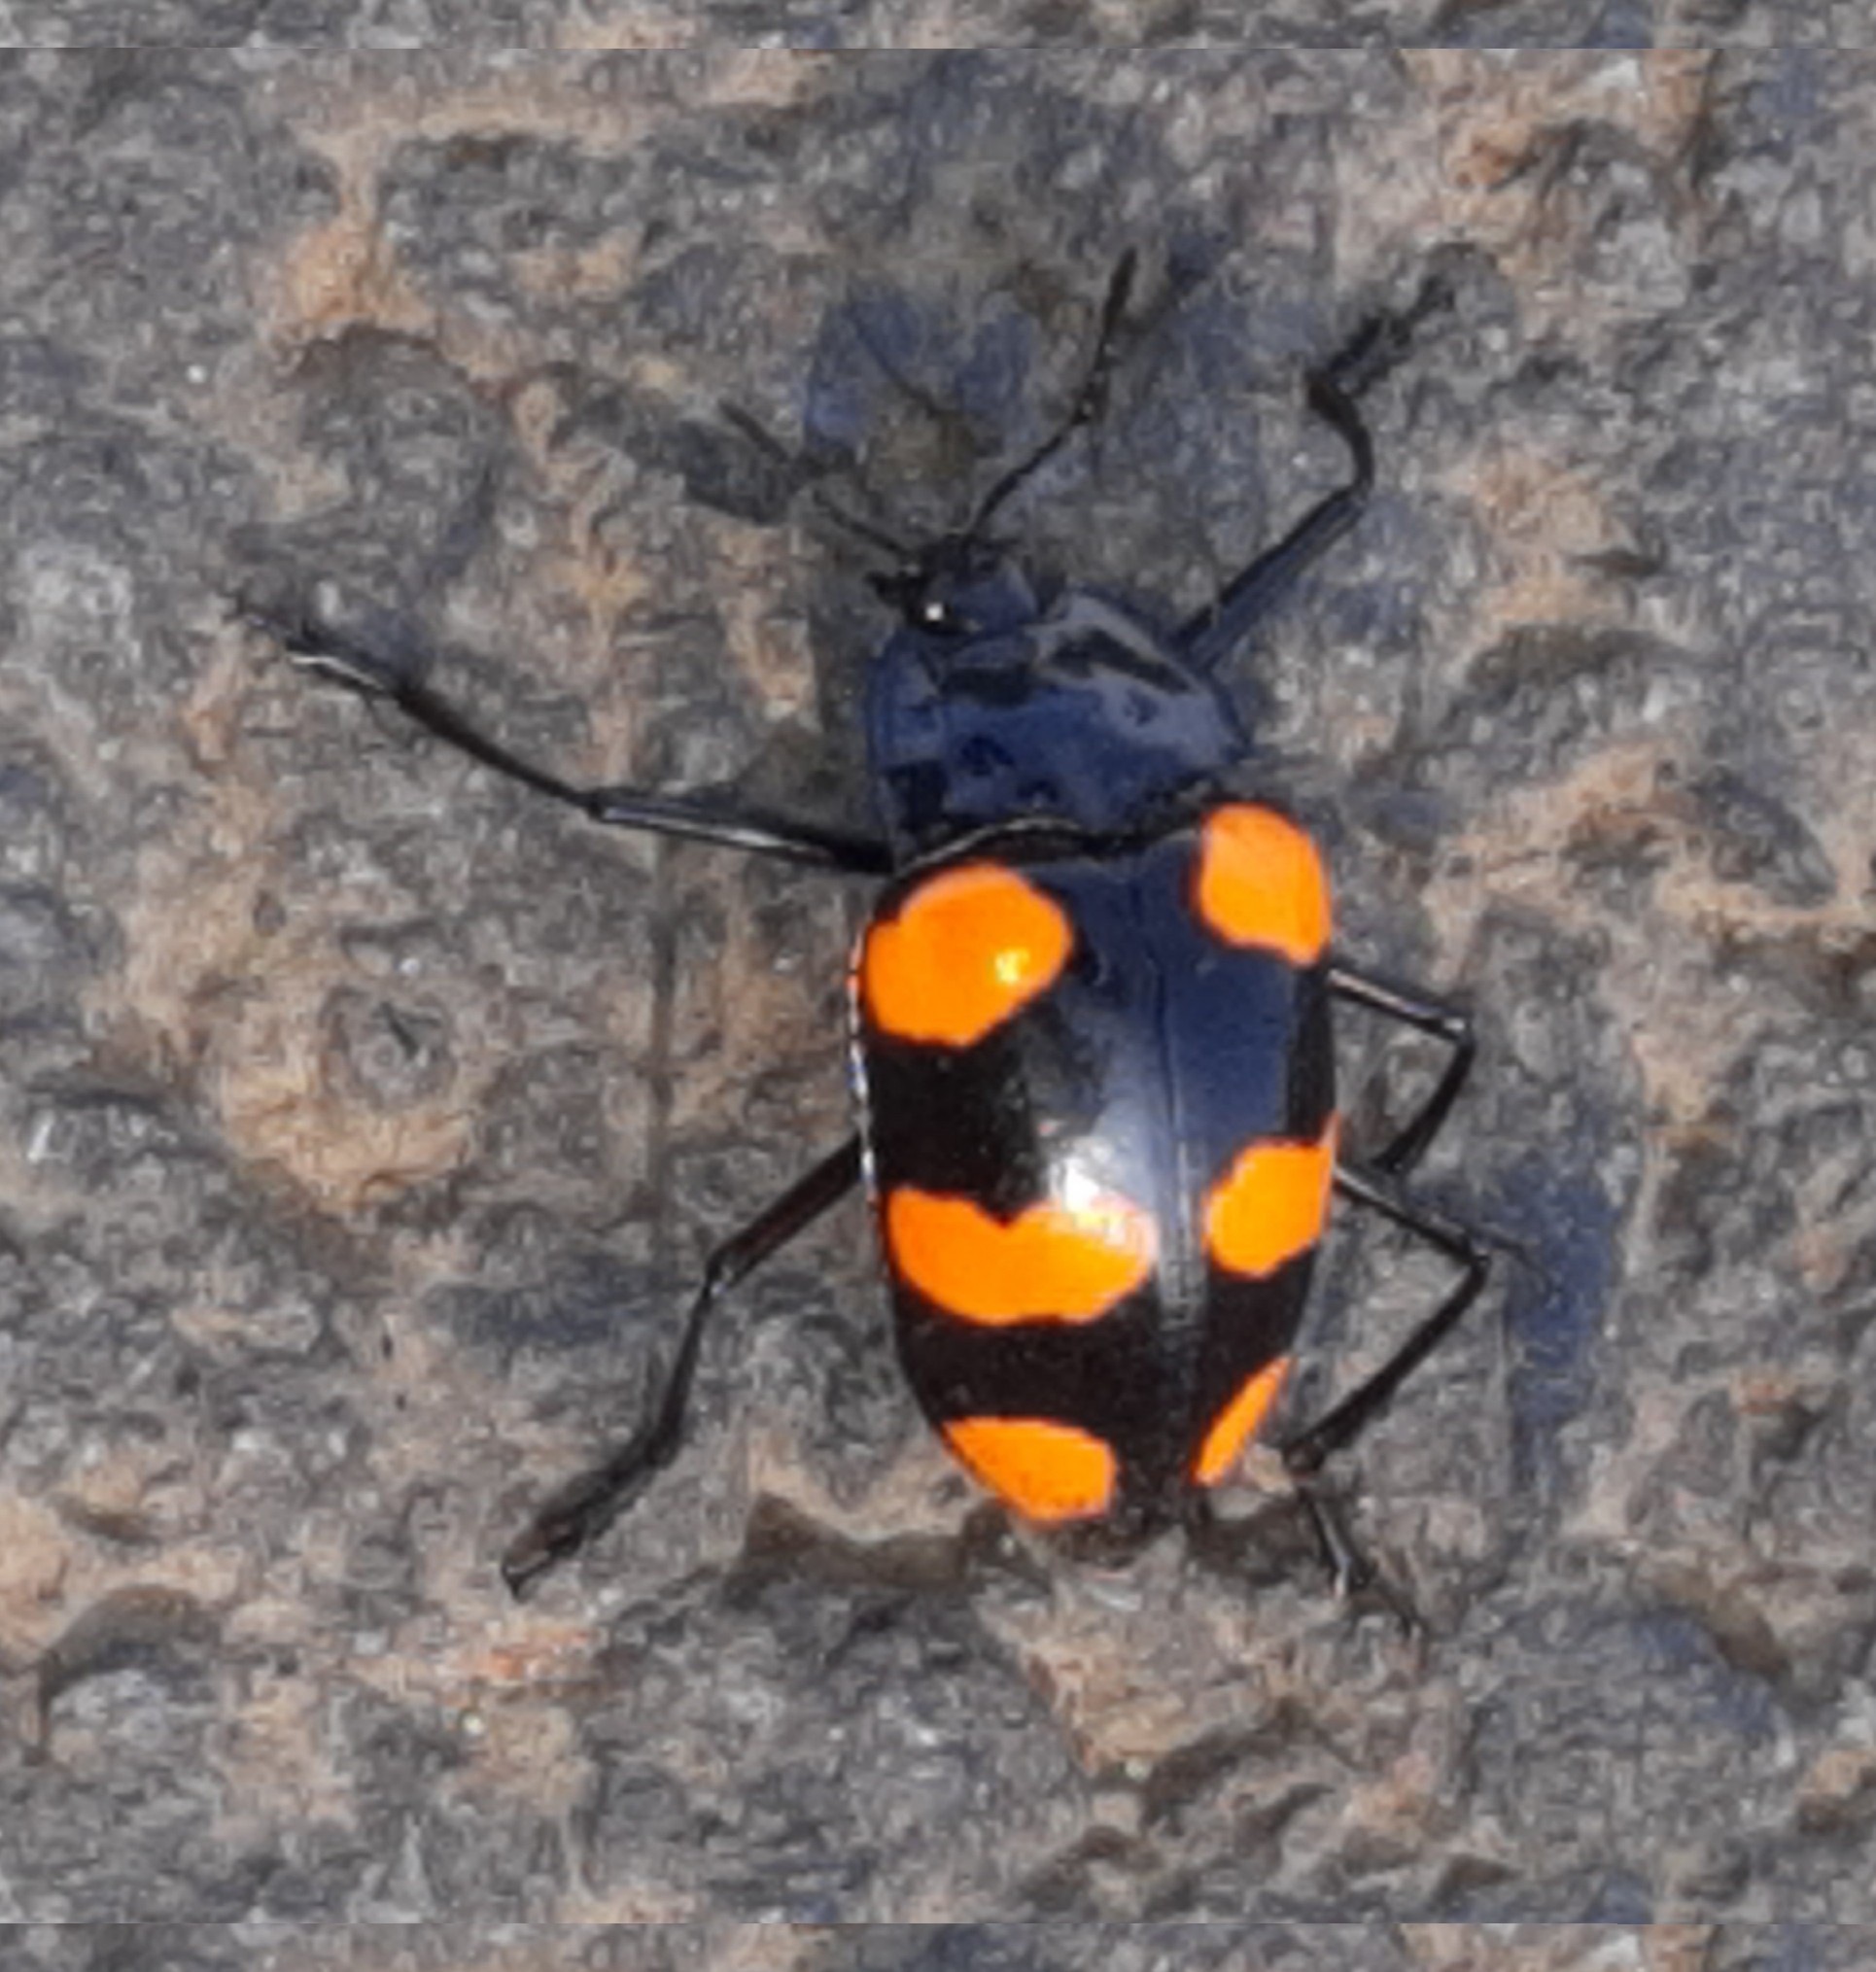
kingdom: Animalia
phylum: Arthropoda
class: Insecta
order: Coleoptera
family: Erotylidae
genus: Scaphidomorphus
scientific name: Scaphidomorphus bosci
